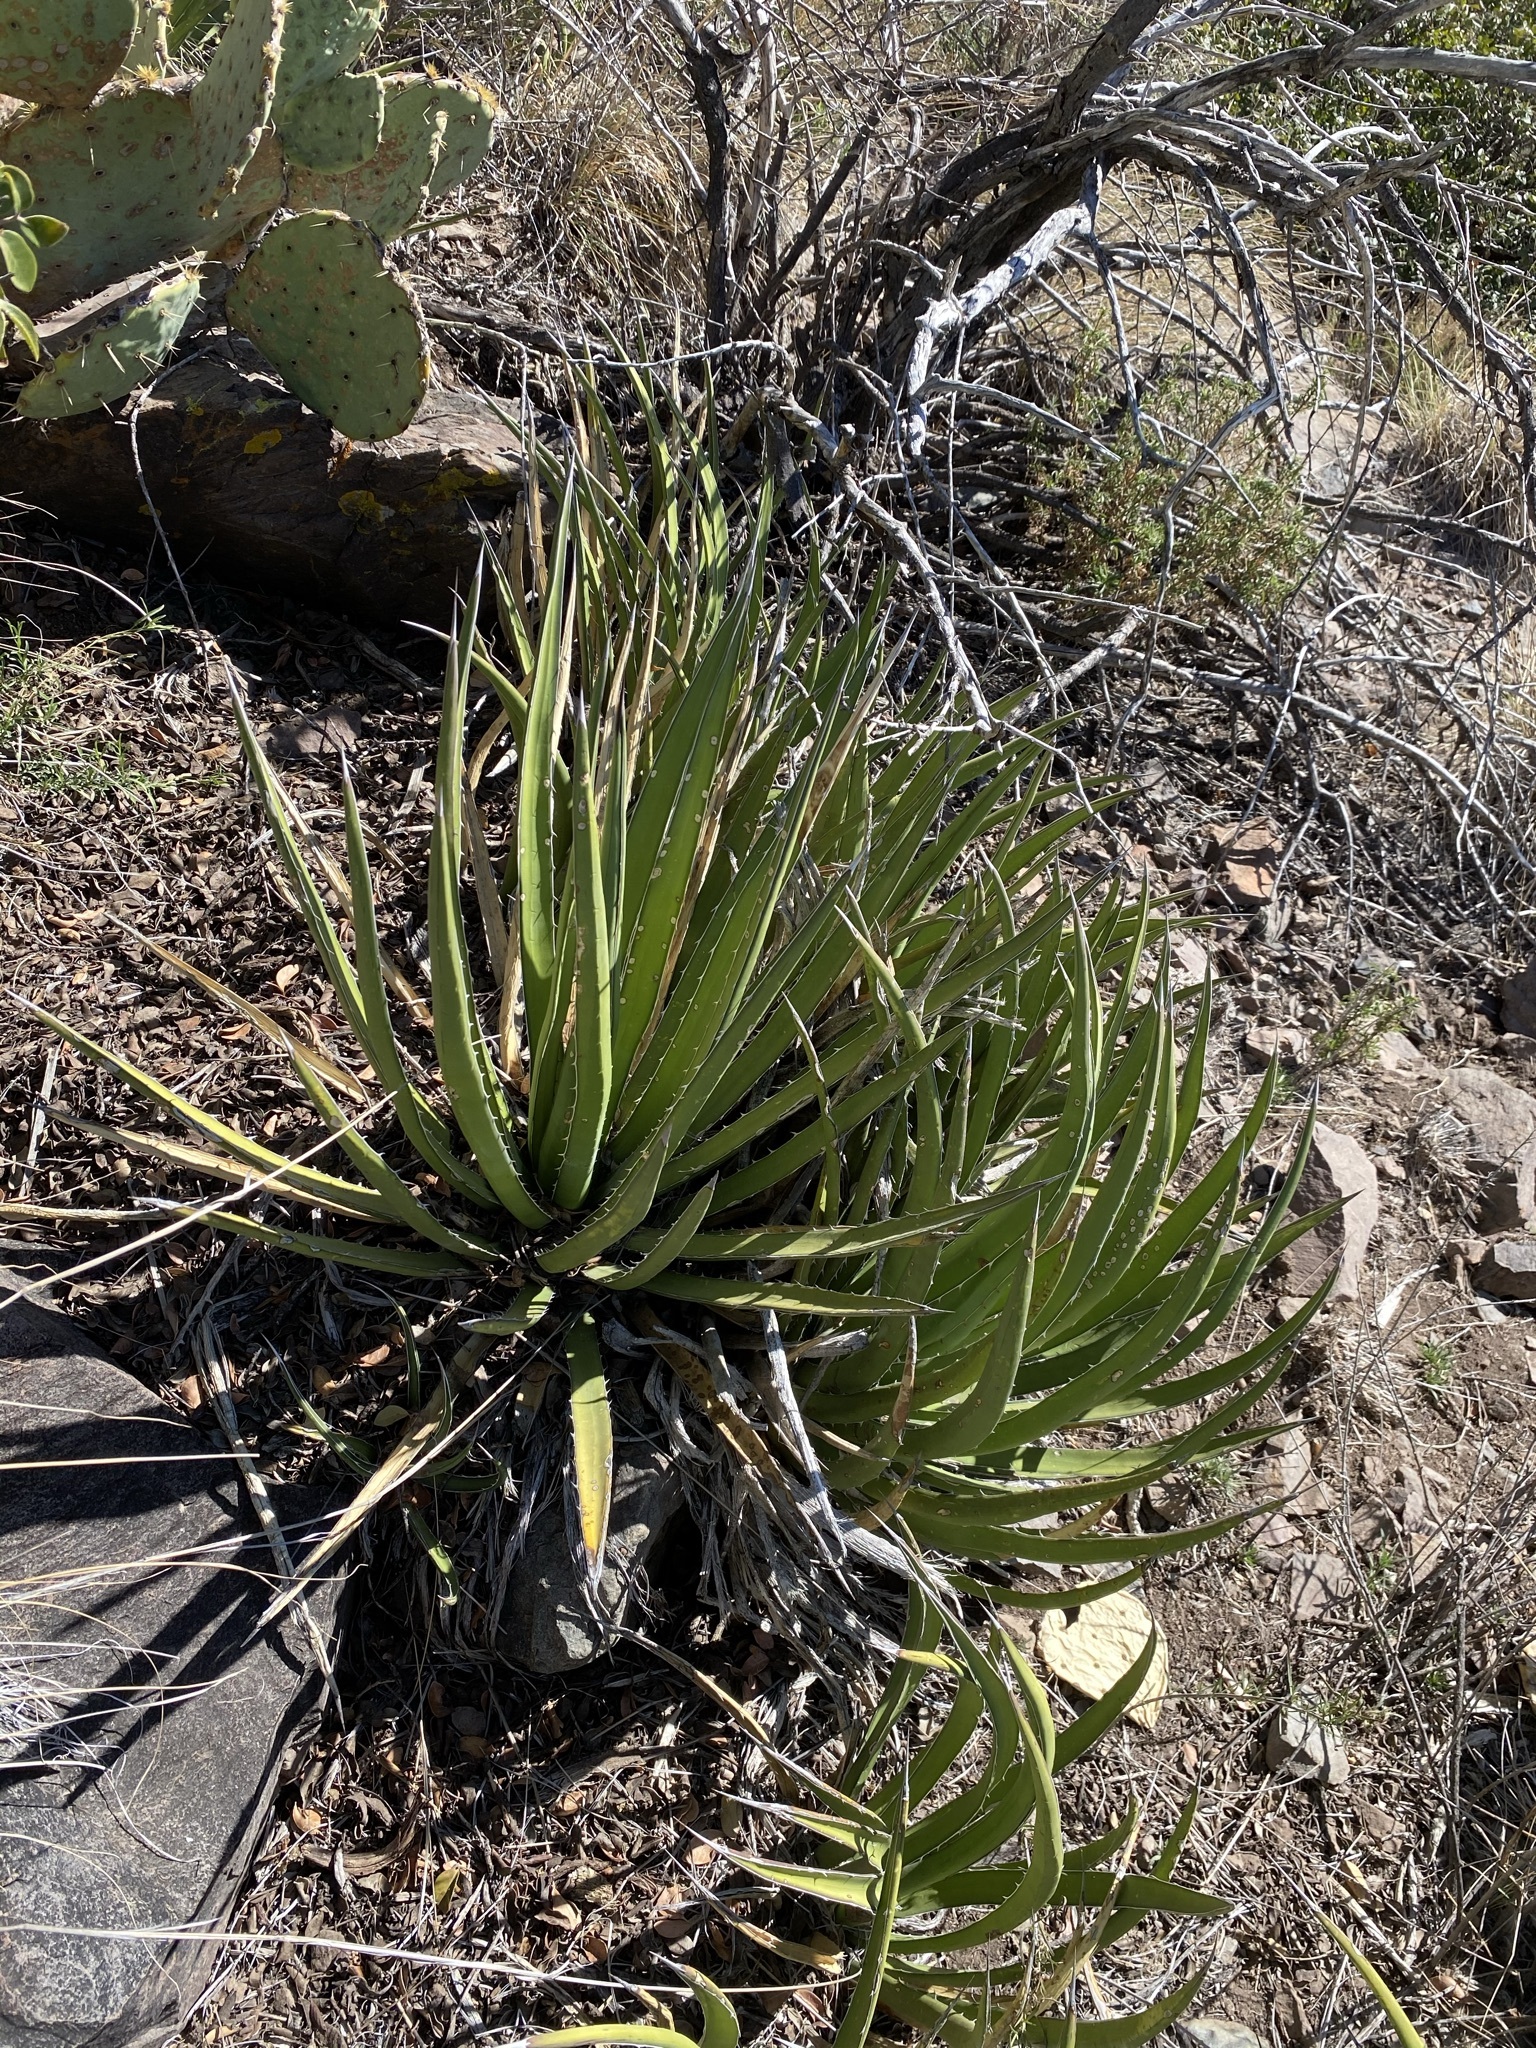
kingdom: Plantae
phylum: Tracheophyta
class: Liliopsida
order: Asparagales
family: Asparagaceae
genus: Agave
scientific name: Agave lechuguilla
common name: Lecheguilla agave
